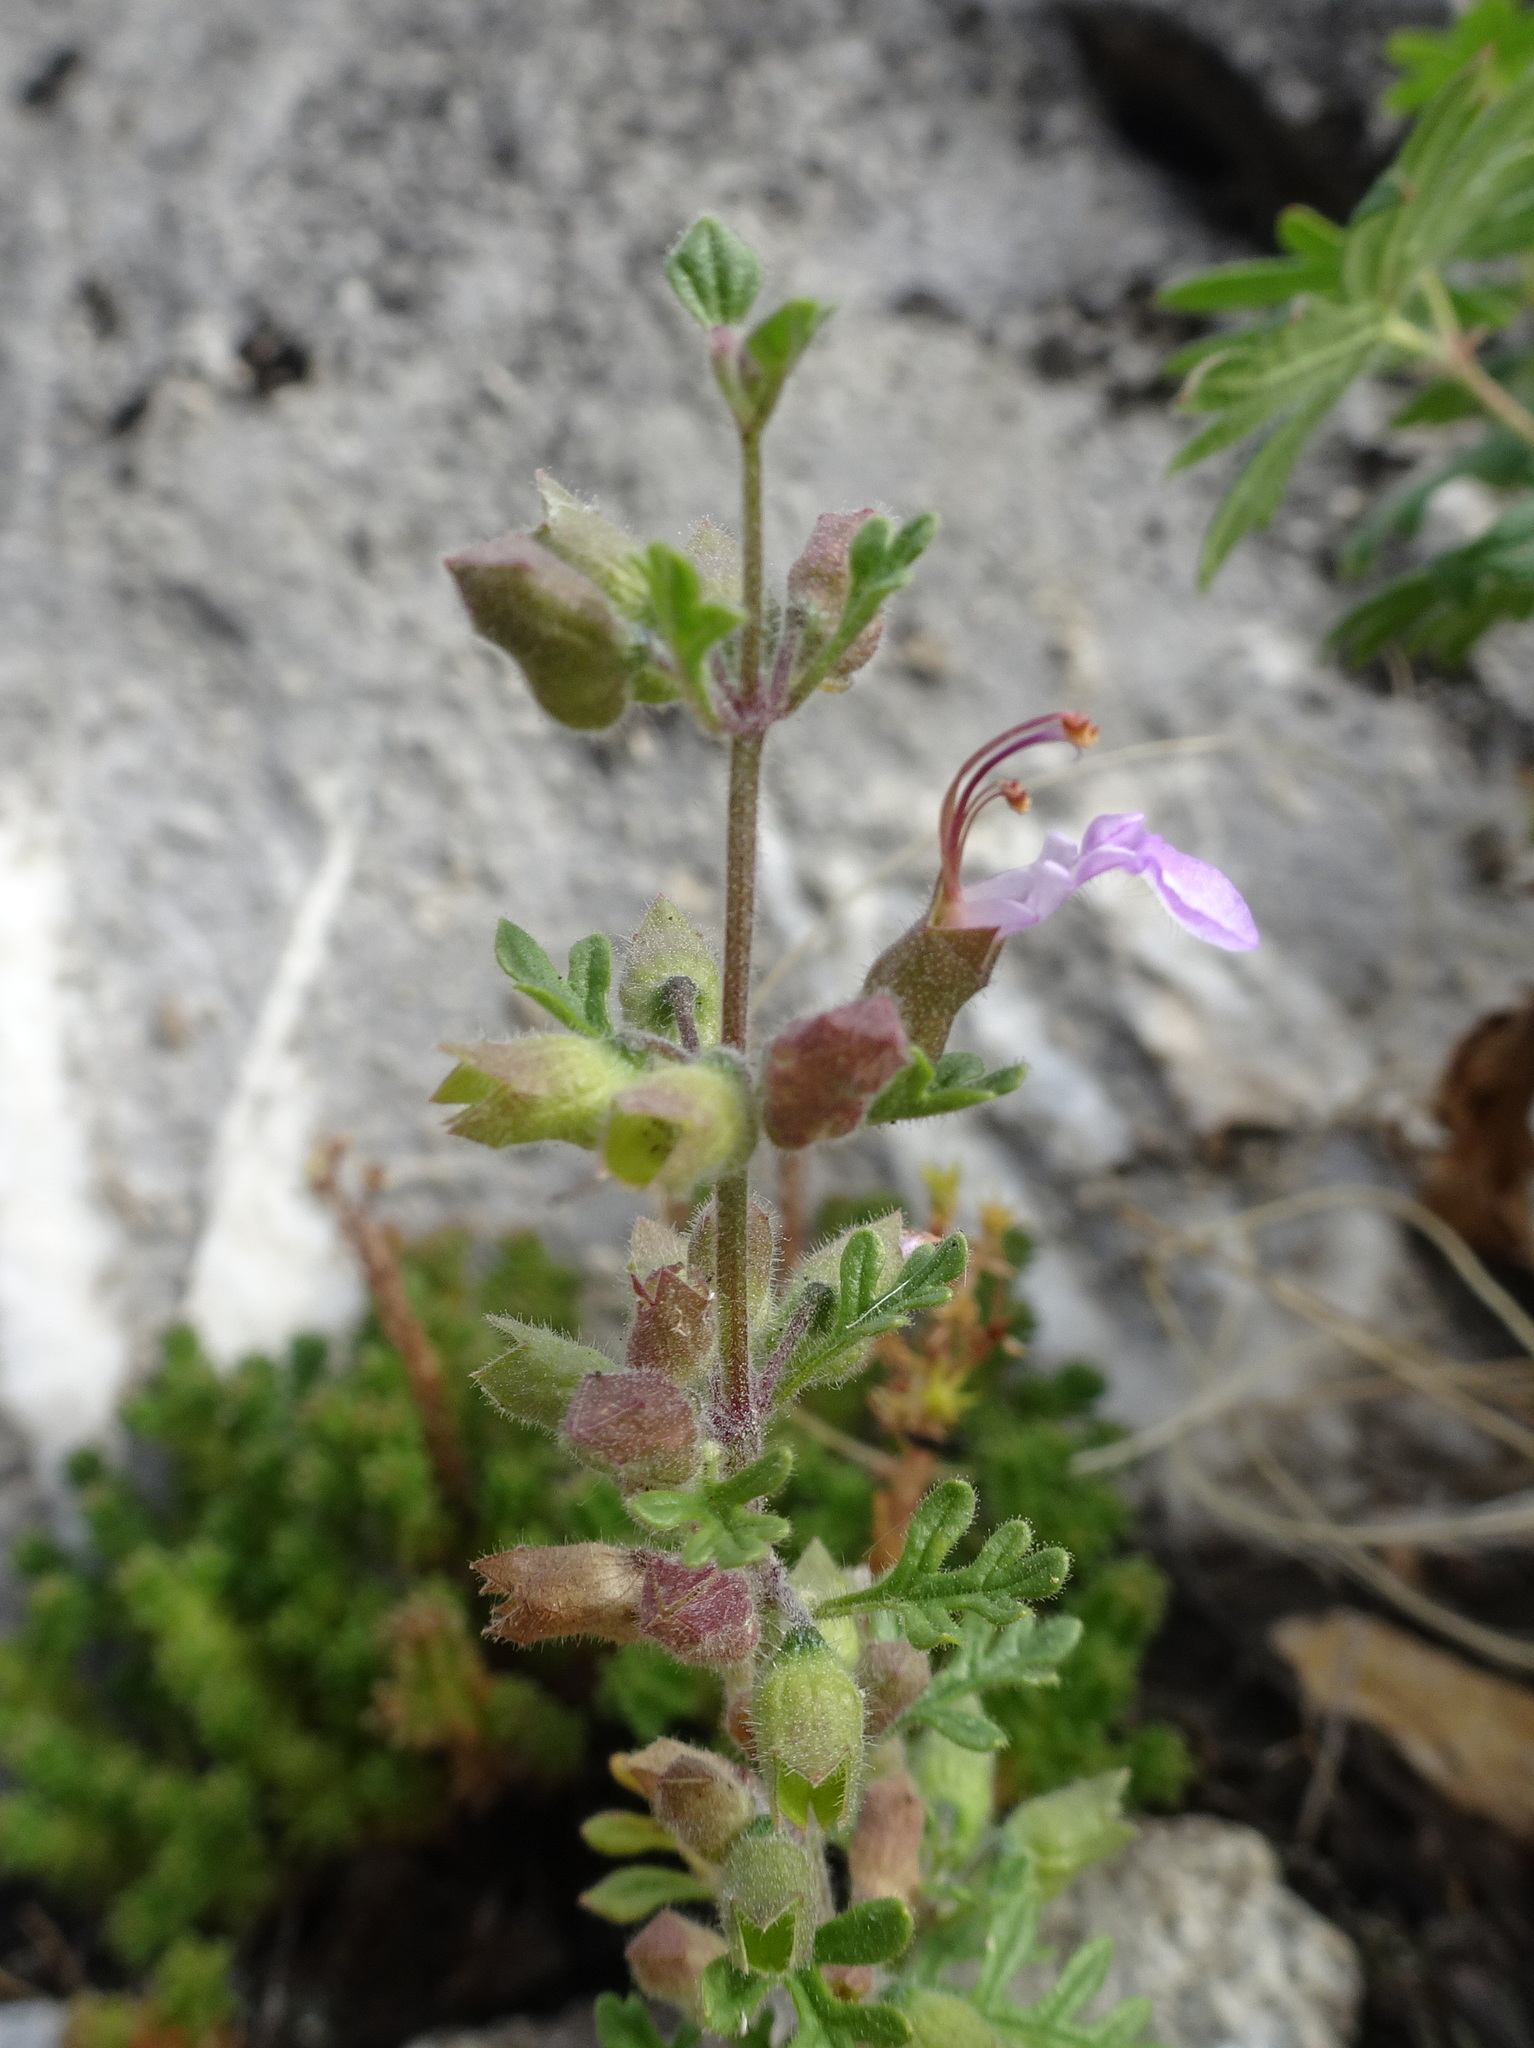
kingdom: Plantae
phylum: Tracheophyta
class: Magnoliopsida
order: Lamiales
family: Lamiaceae
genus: Teucrium
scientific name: Teucrium botrys
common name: Cut-leaved germander
